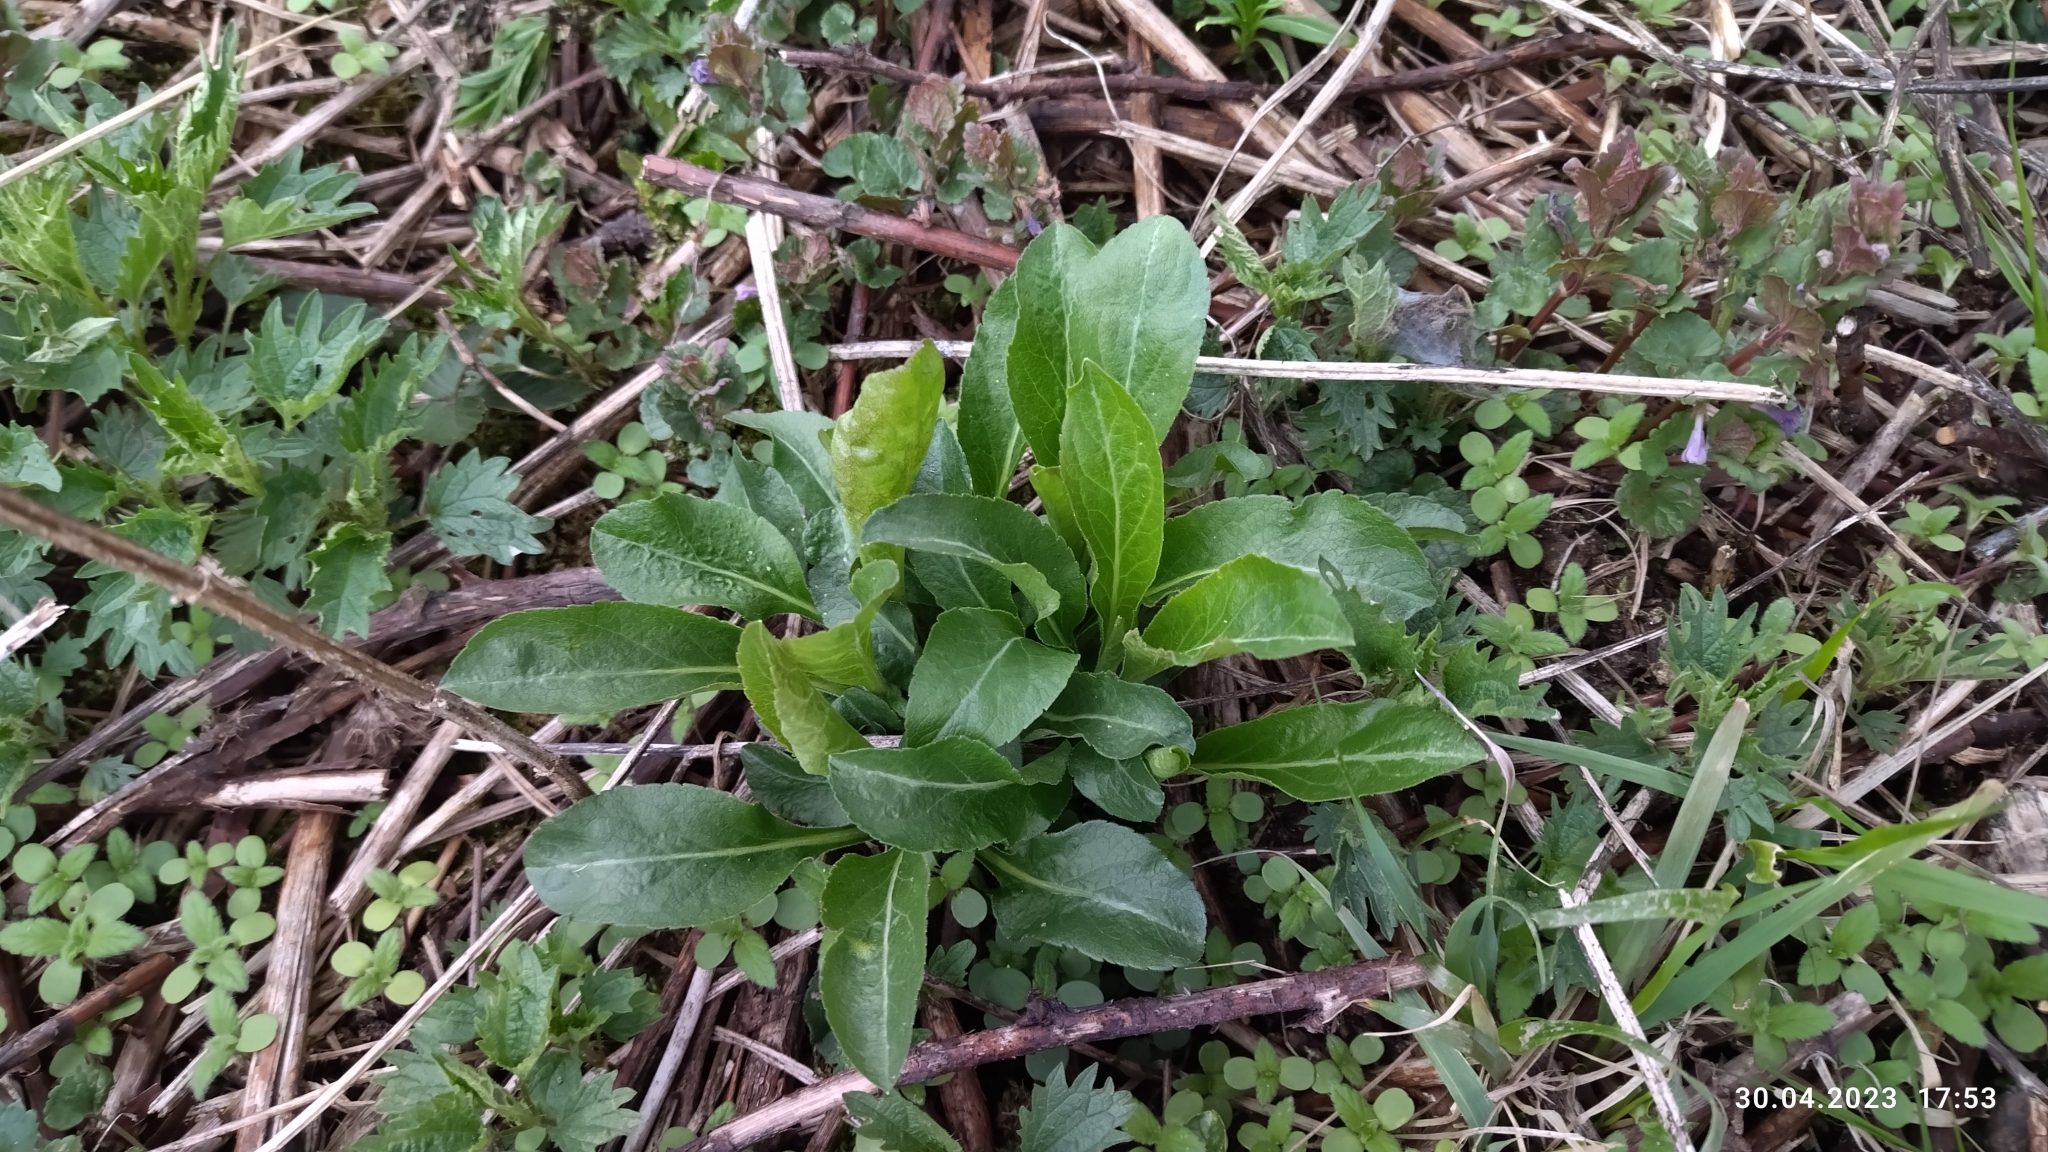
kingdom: Plantae
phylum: Tracheophyta
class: Magnoliopsida
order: Asterales
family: Asteraceae
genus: Solidago
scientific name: Solidago virgaurea
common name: Goldenrod
